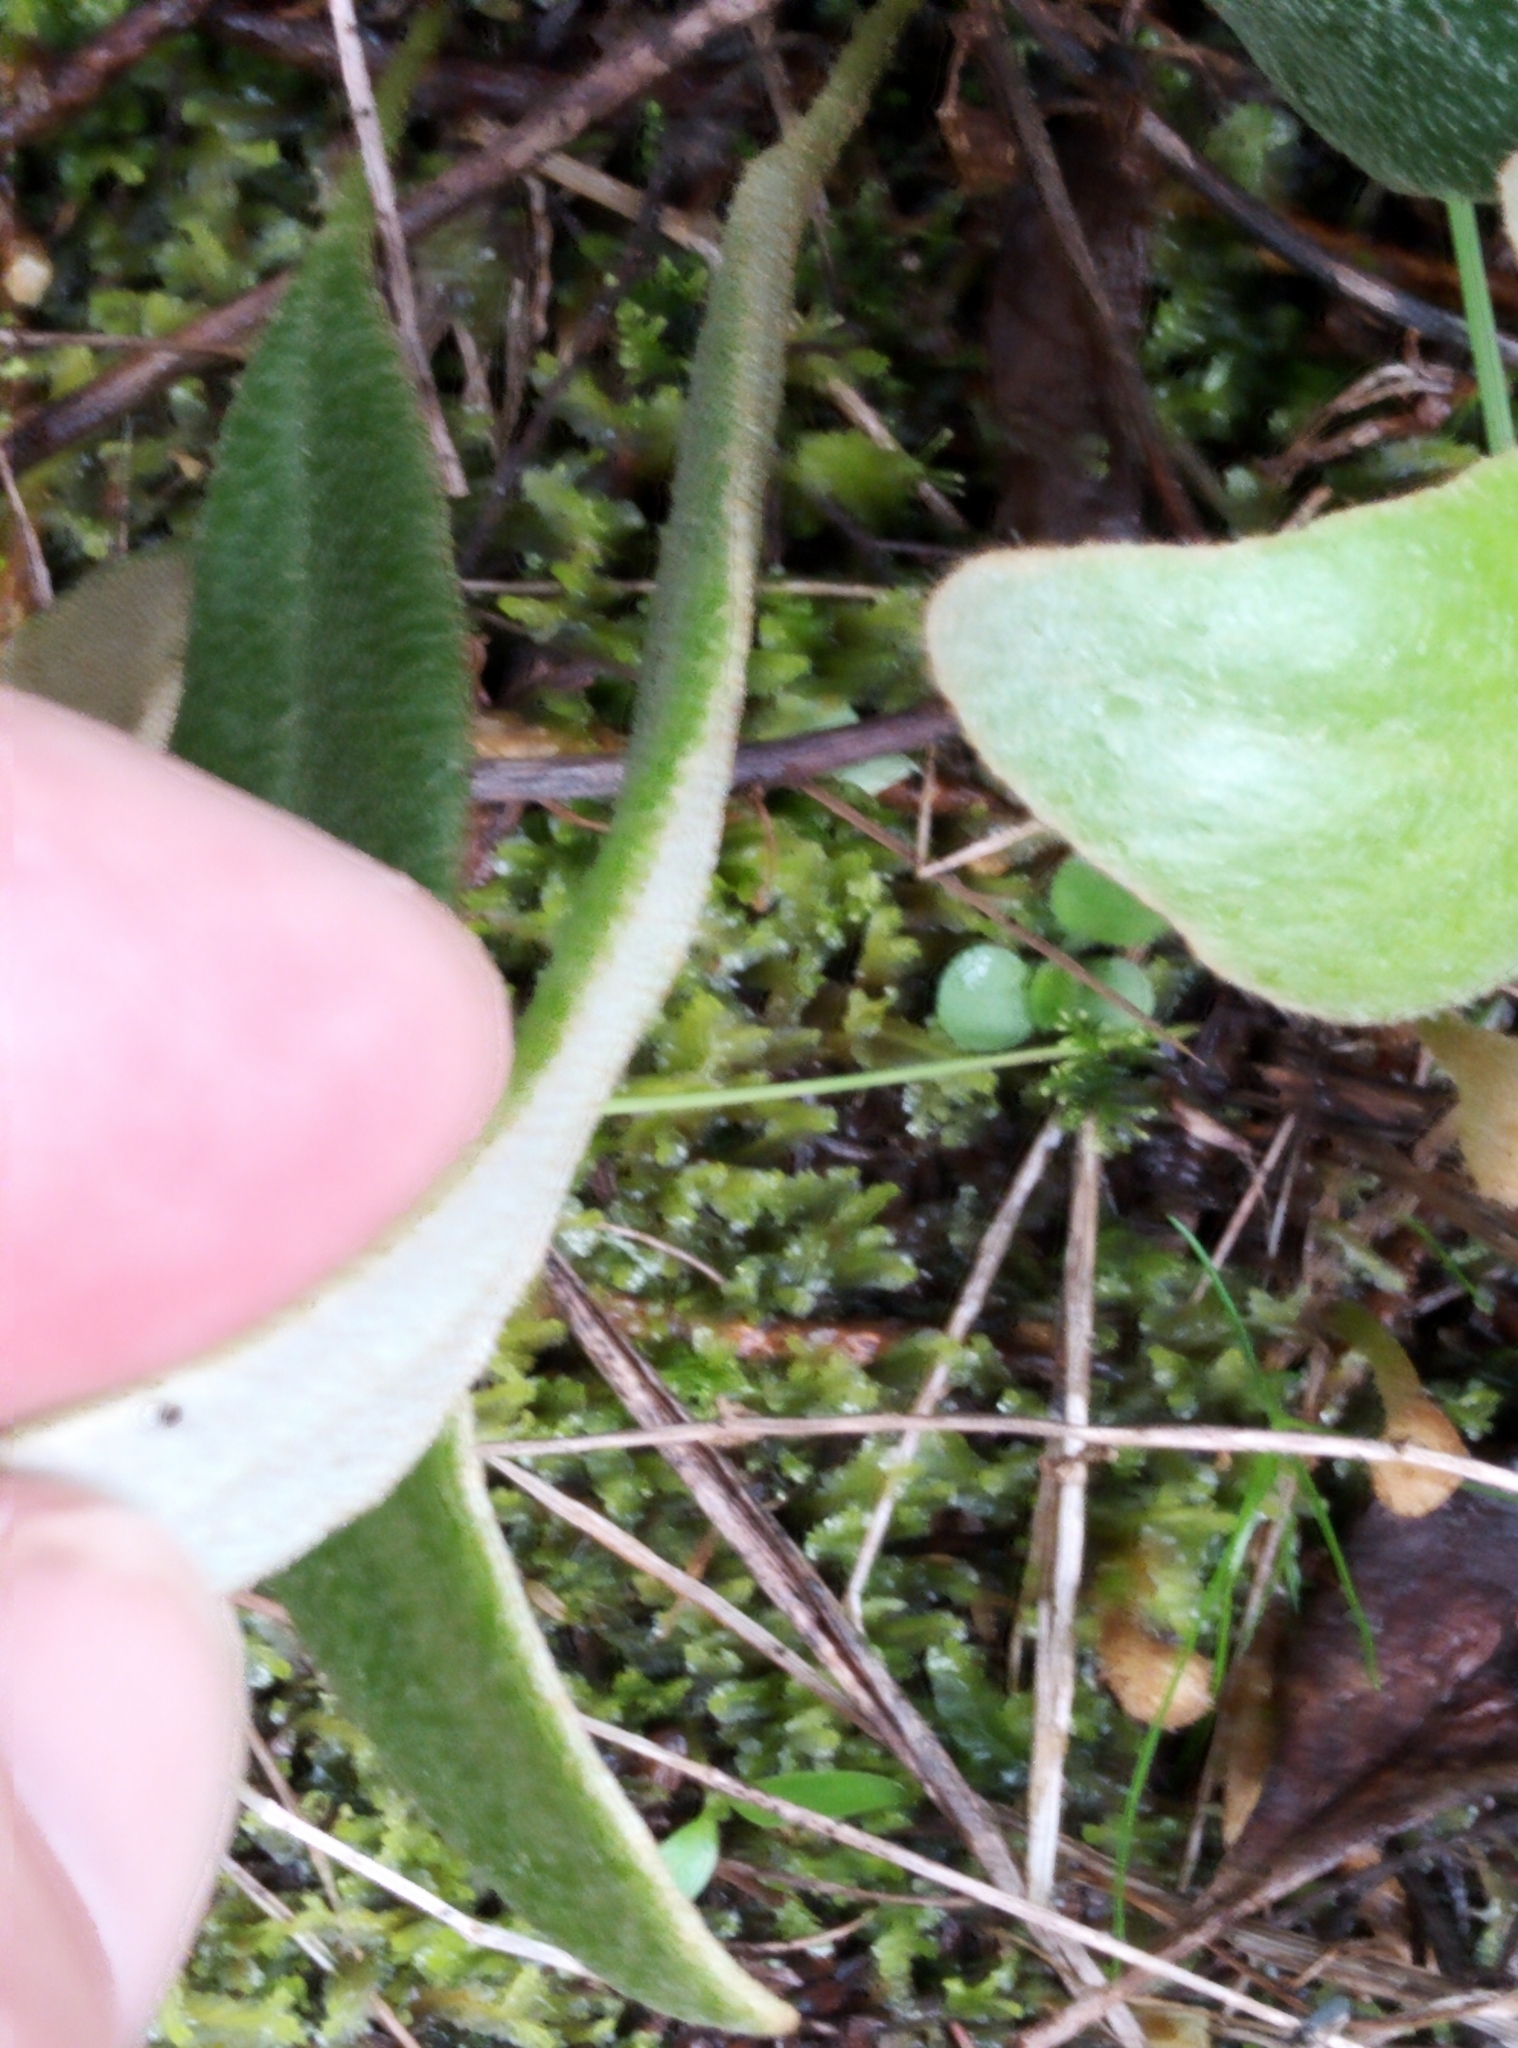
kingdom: Plantae
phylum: Tracheophyta
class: Polypodiopsida
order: Polypodiales
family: Polypodiaceae
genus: Pyrrosia
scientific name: Pyrrosia eleagnifolia
